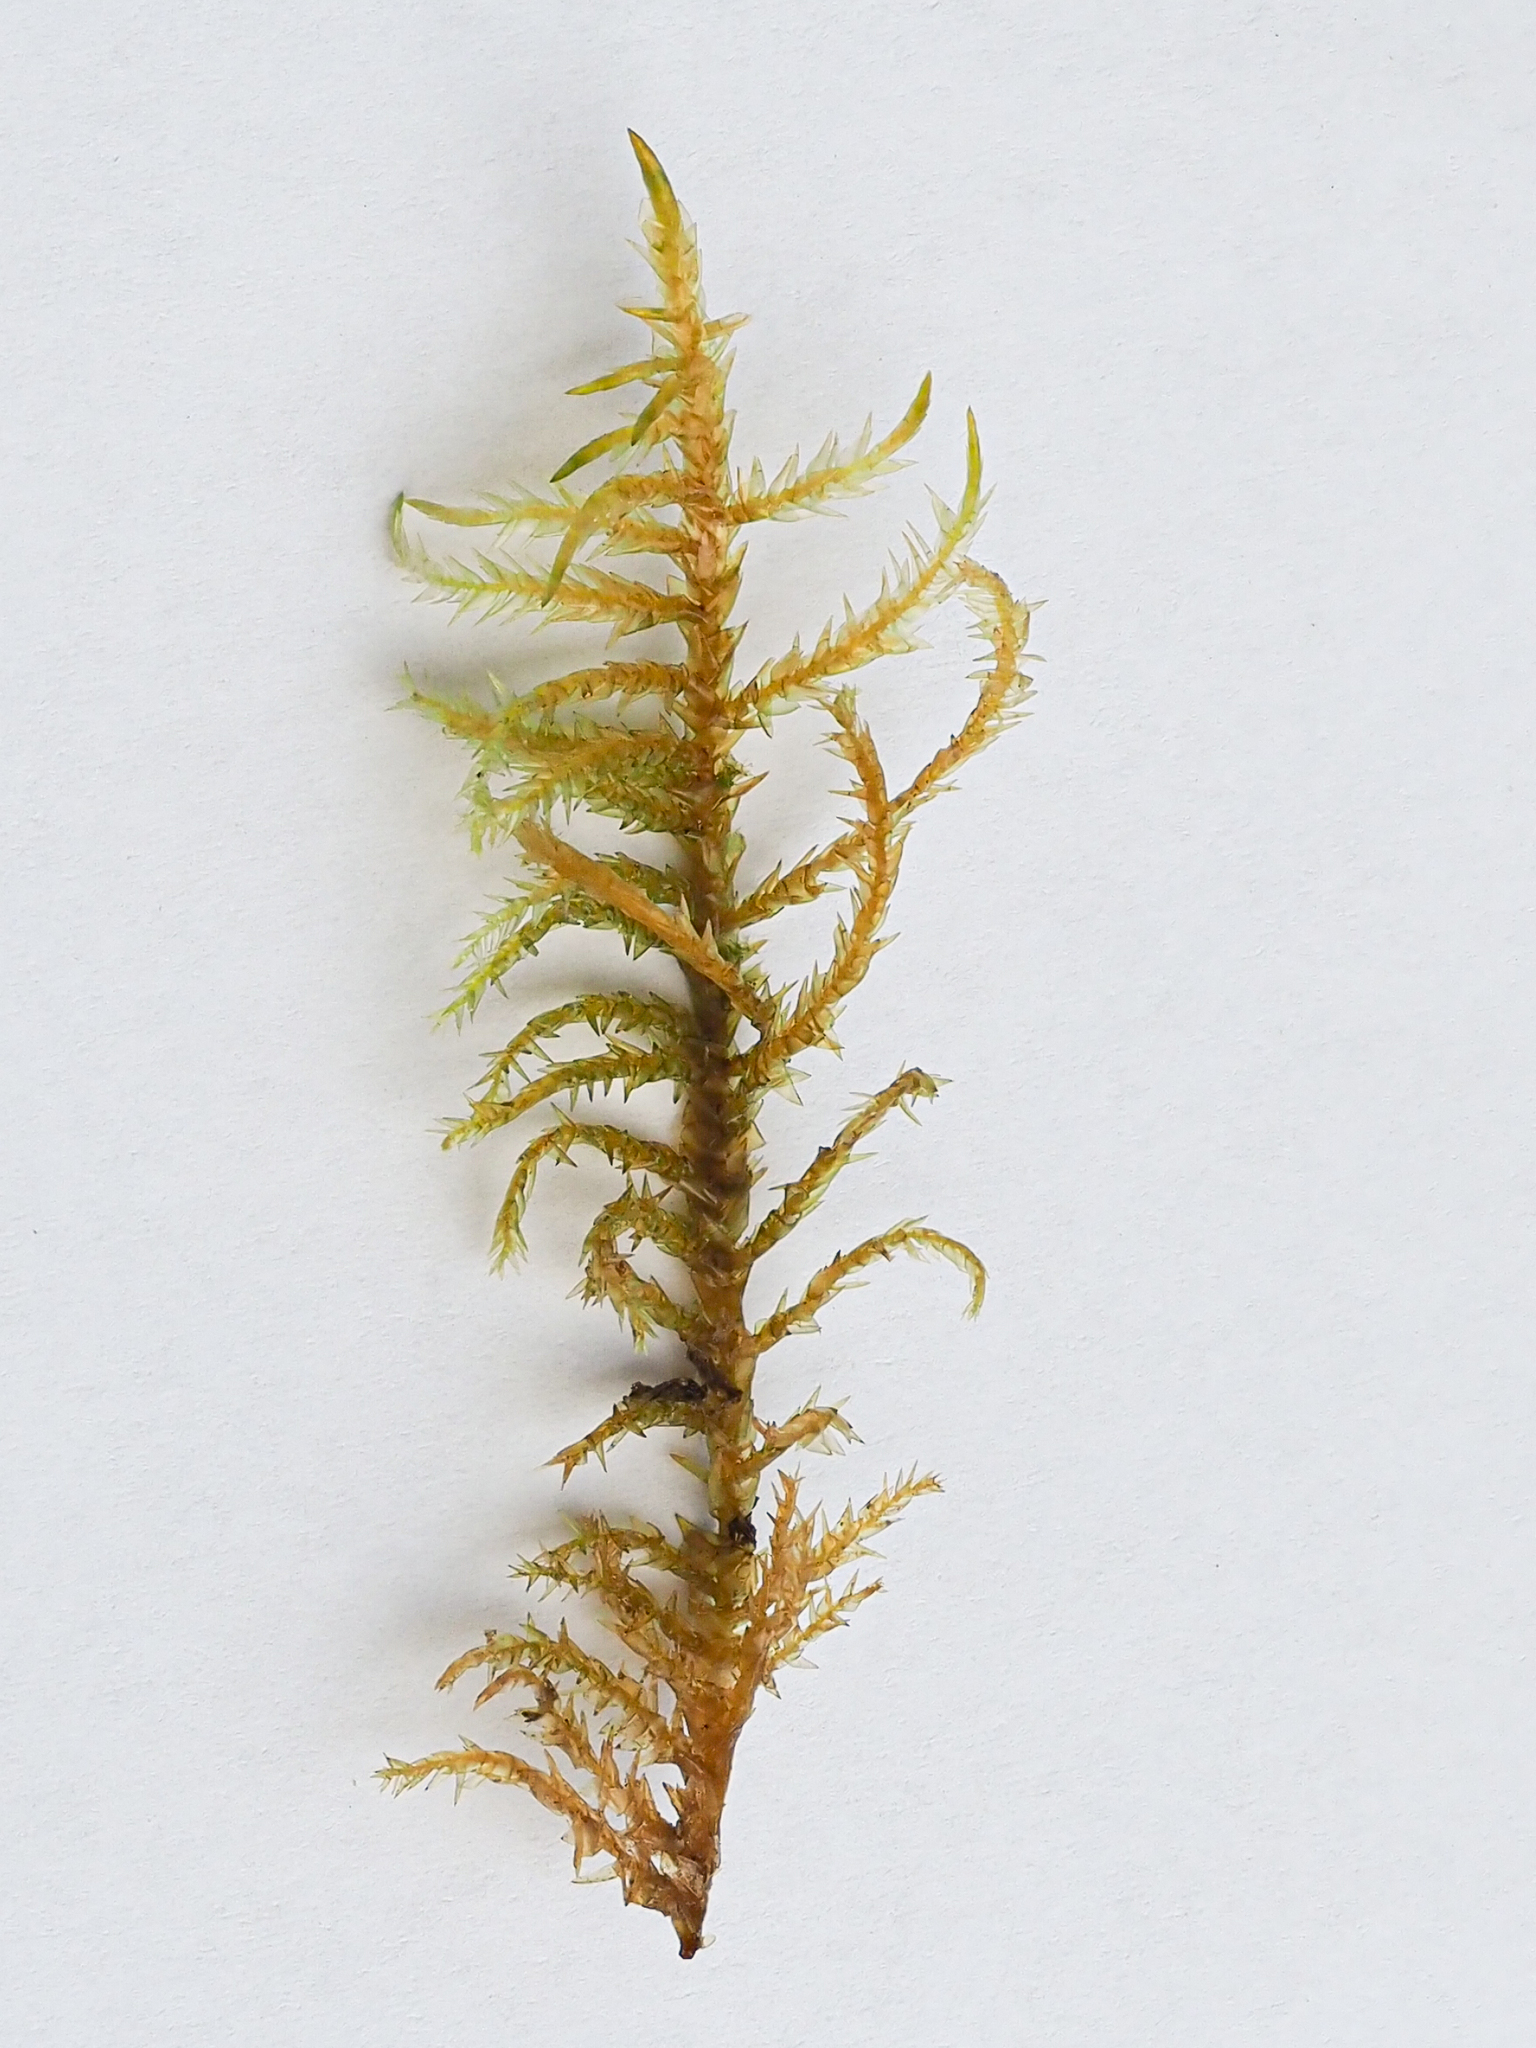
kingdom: Plantae
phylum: Bryophyta
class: Bryopsida
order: Hypnales
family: Pylaisiaceae
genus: Calliergonella
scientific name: Calliergonella cuspidata
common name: Common large wetland moss
